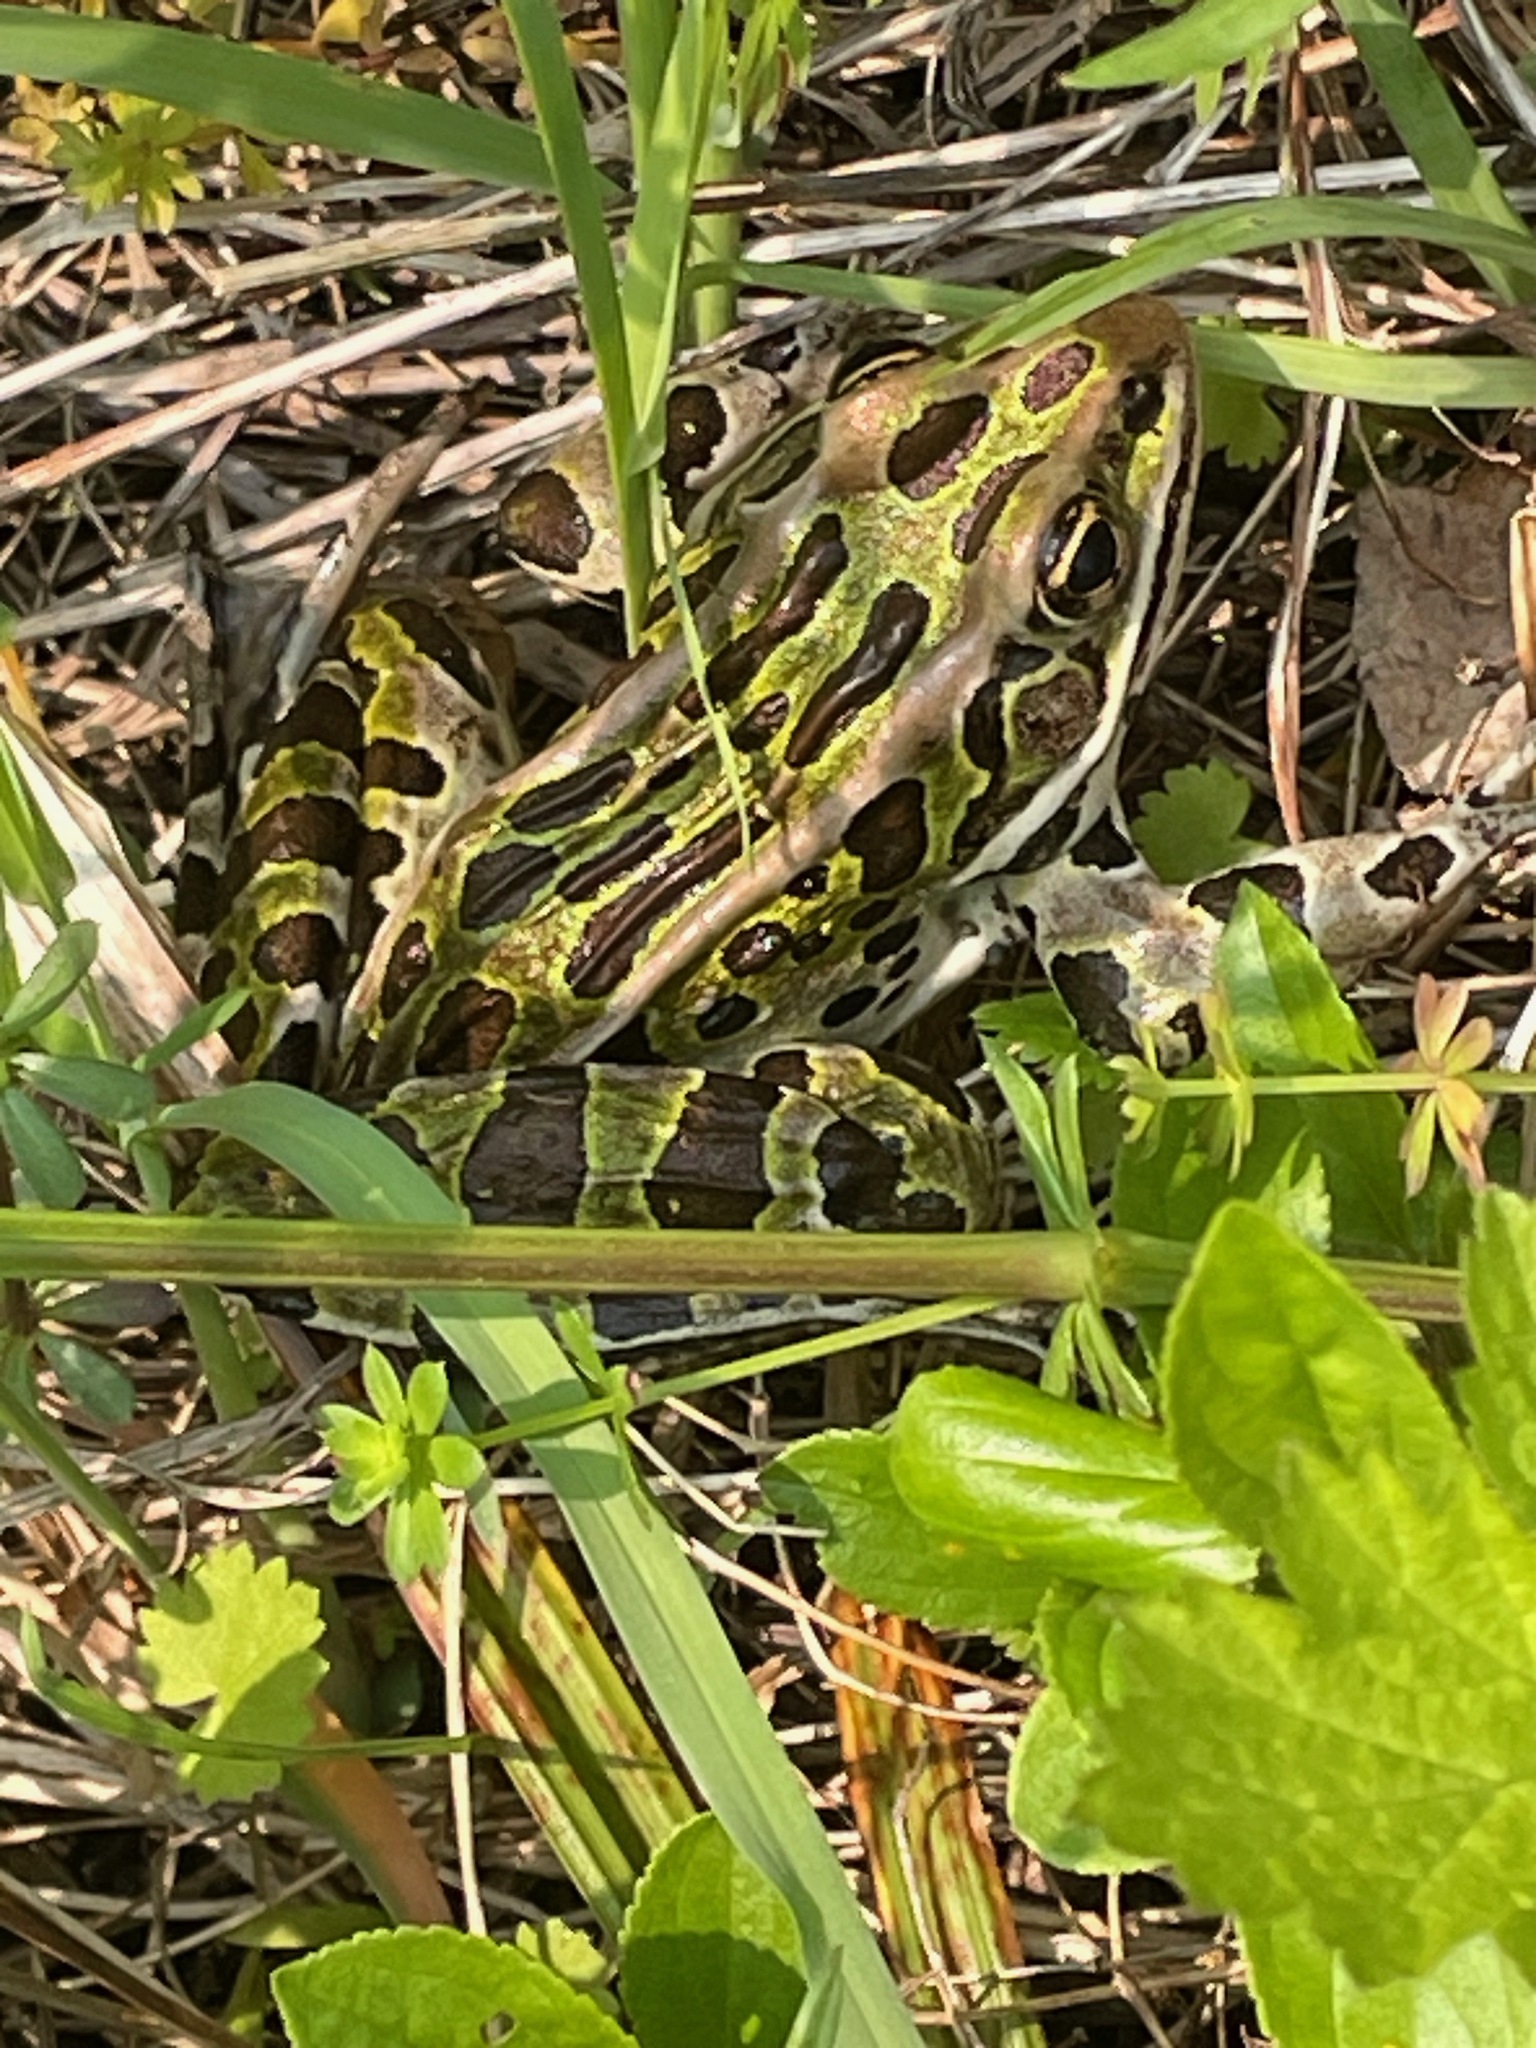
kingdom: Animalia
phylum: Chordata
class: Amphibia
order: Anura
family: Ranidae
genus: Lithobates
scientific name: Lithobates pipiens
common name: Northern leopard frog
